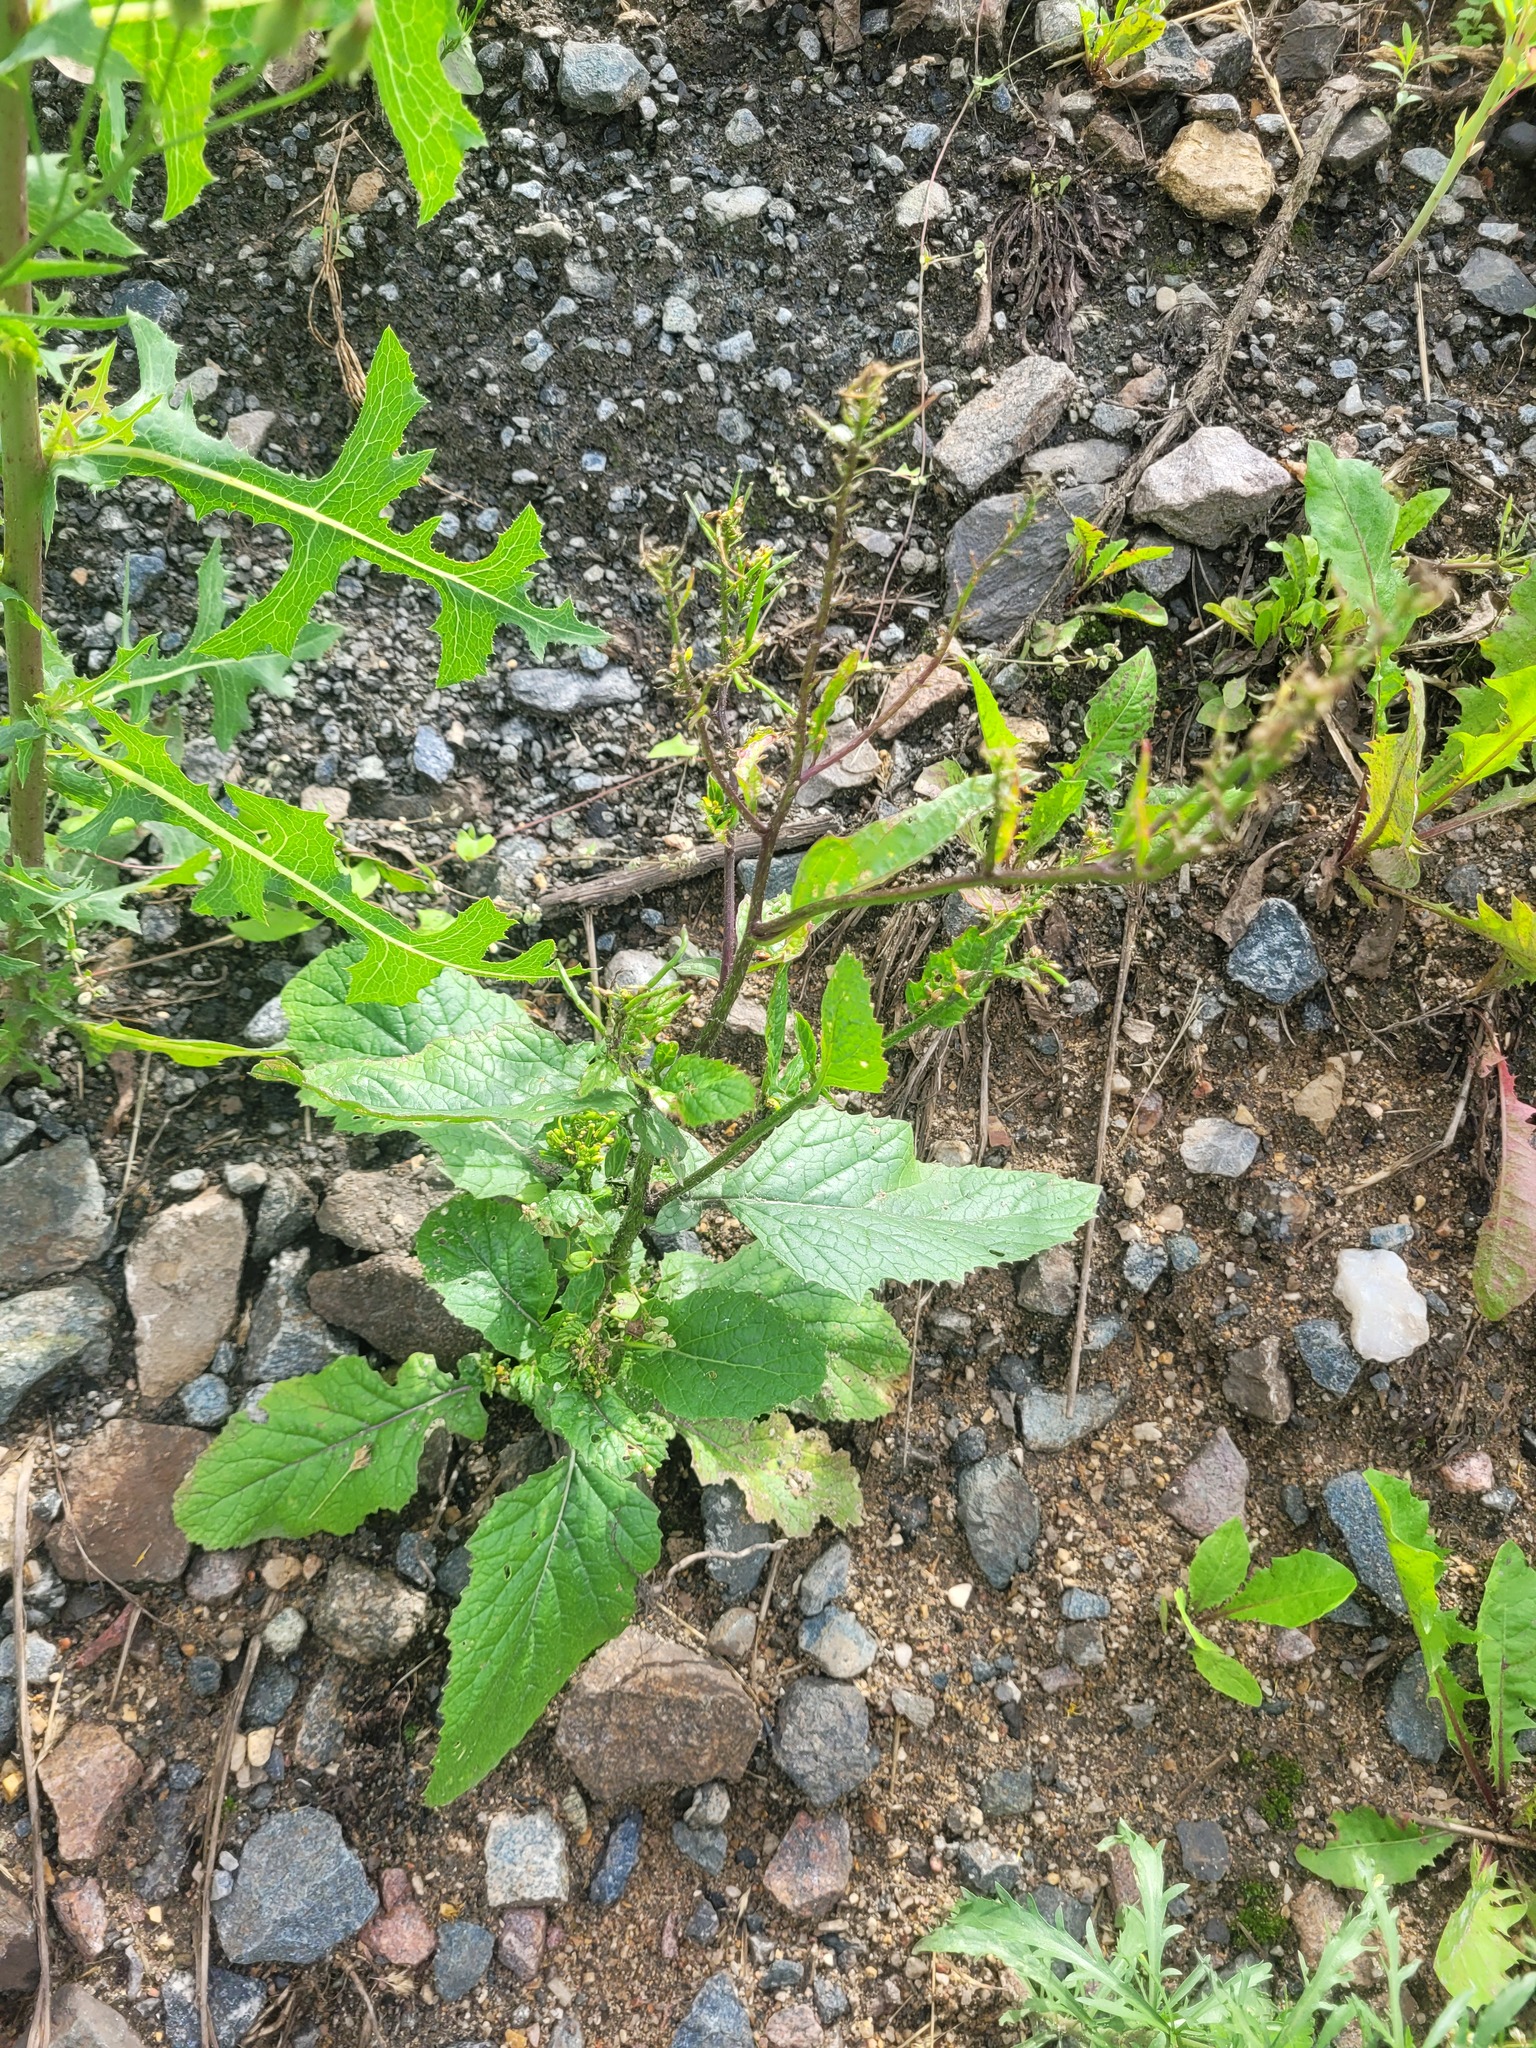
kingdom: Plantae
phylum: Tracheophyta
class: Magnoliopsida
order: Brassicales
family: Brassicaceae
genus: Sinapis
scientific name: Sinapis arvensis
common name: Charlock
